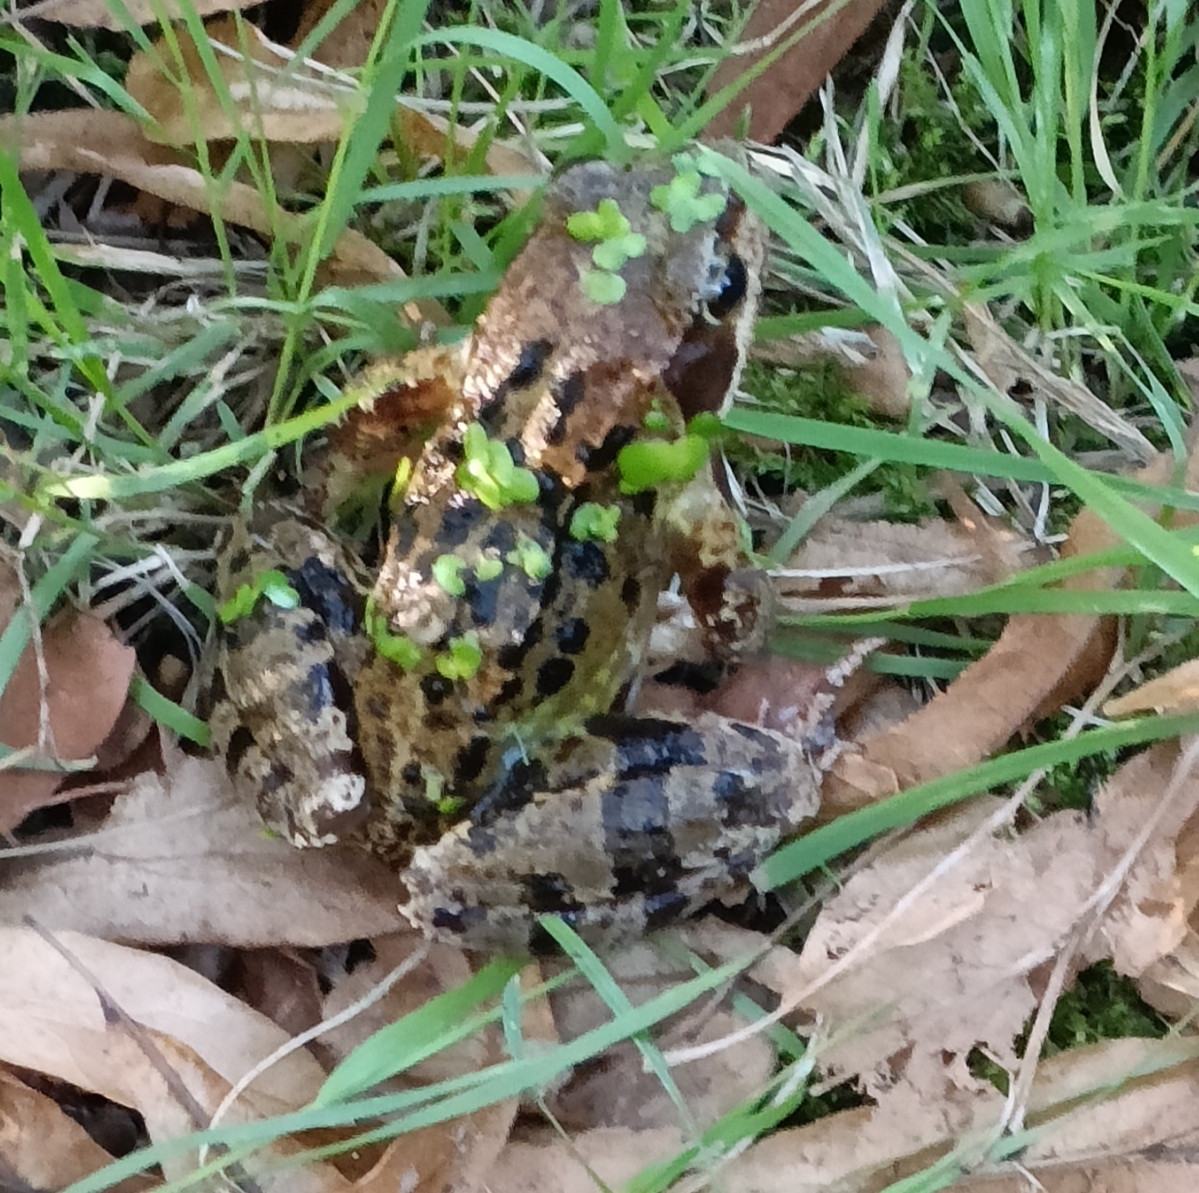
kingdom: Animalia
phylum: Chordata
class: Amphibia
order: Anura
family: Ranidae
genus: Rana
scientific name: Rana temporaria
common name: Common frog
